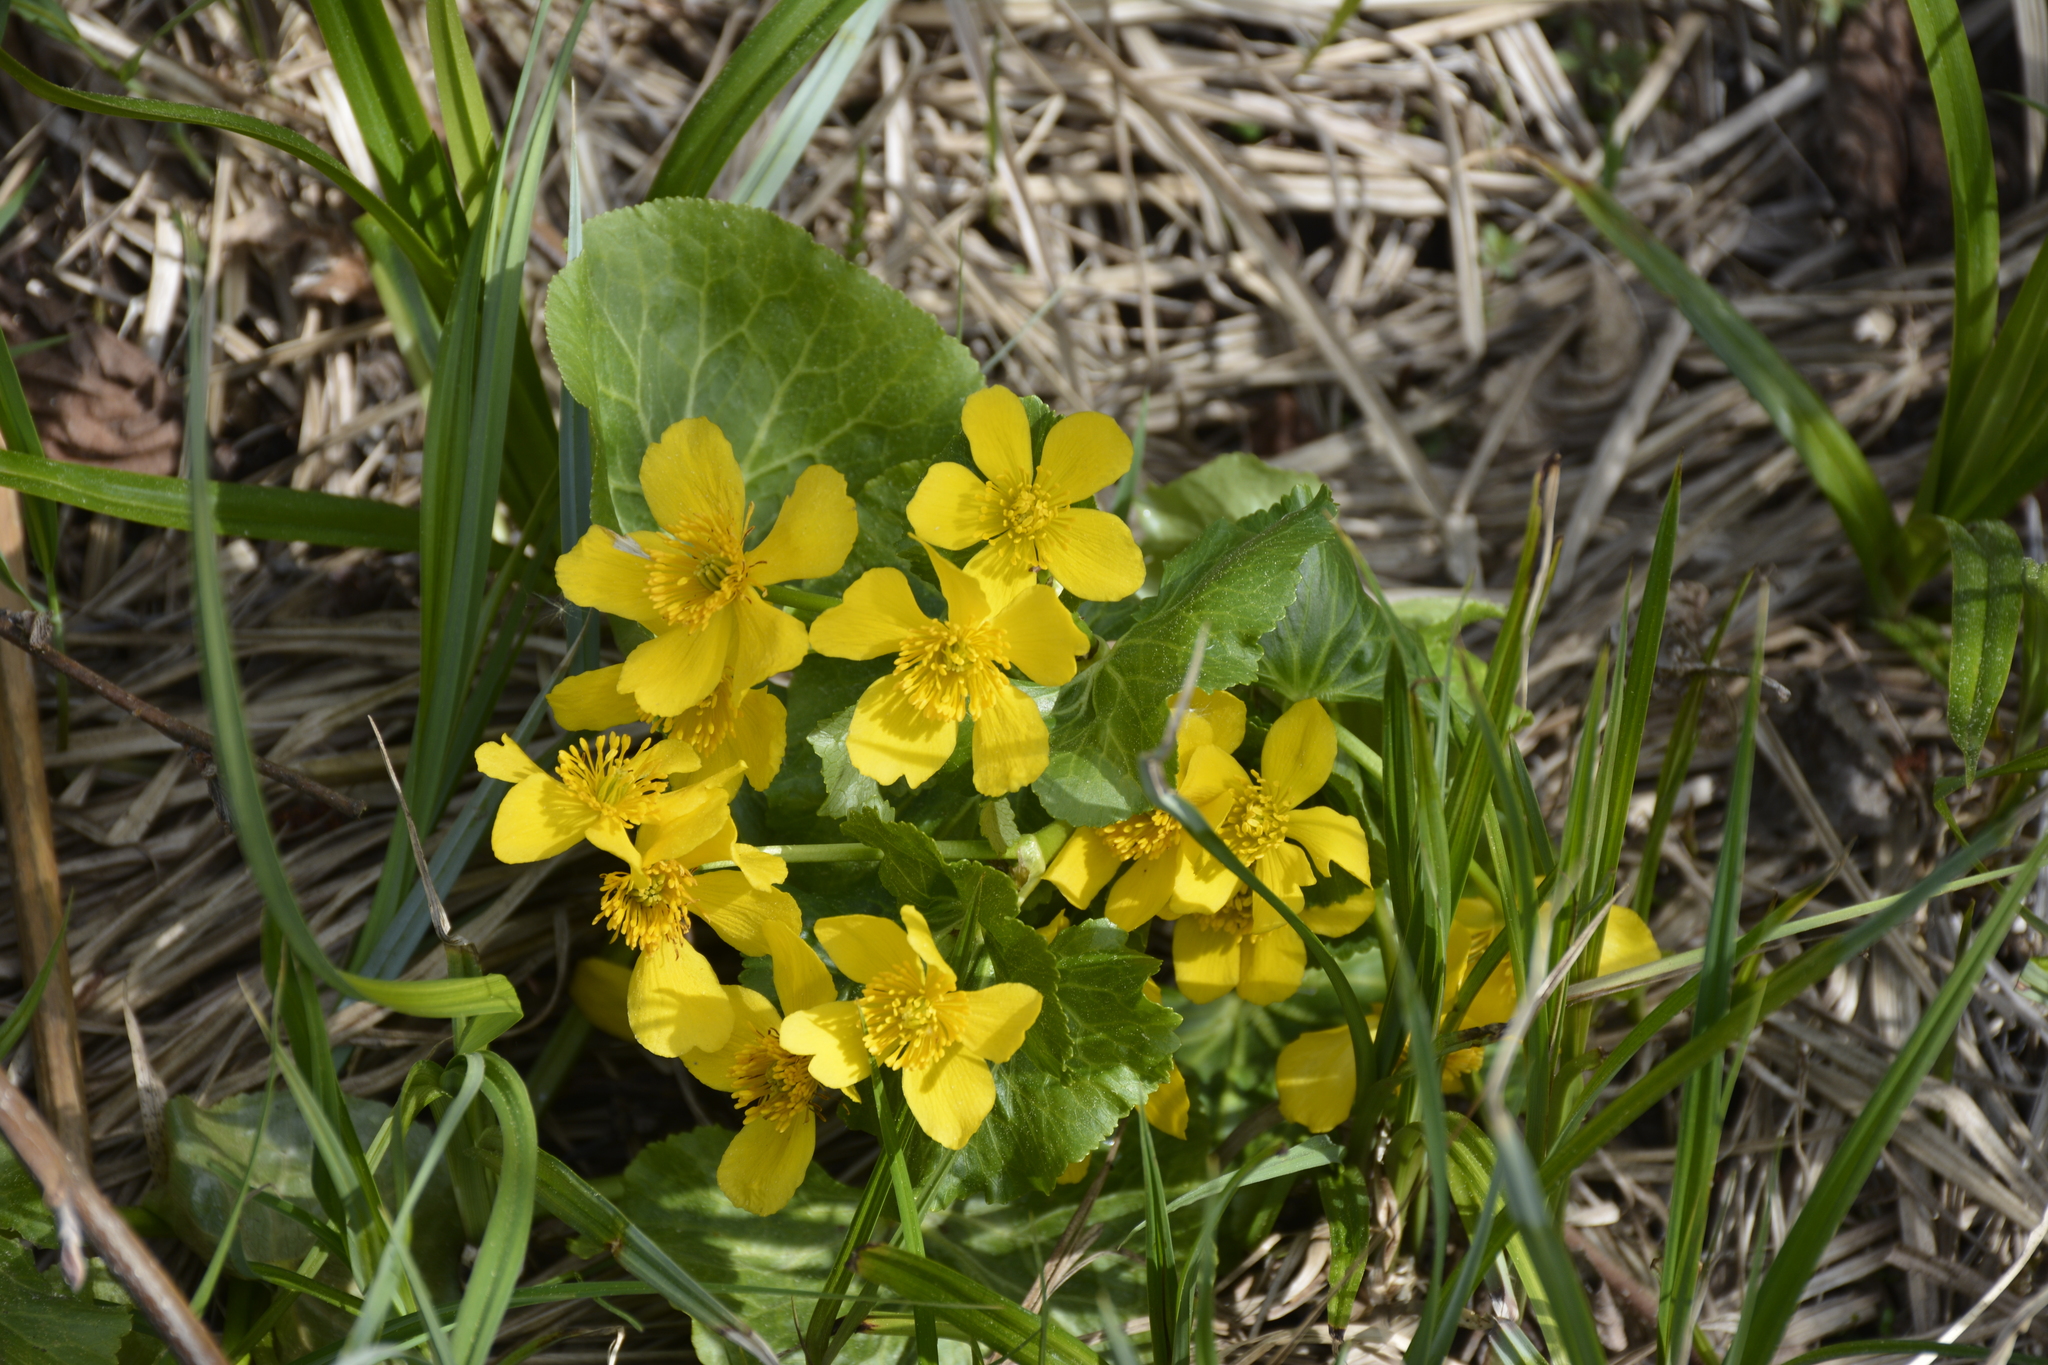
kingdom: Plantae
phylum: Tracheophyta
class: Magnoliopsida
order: Ranunculales
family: Ranunculaceae
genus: Caltha
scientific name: Caltha palustris
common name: Marsh marigold
